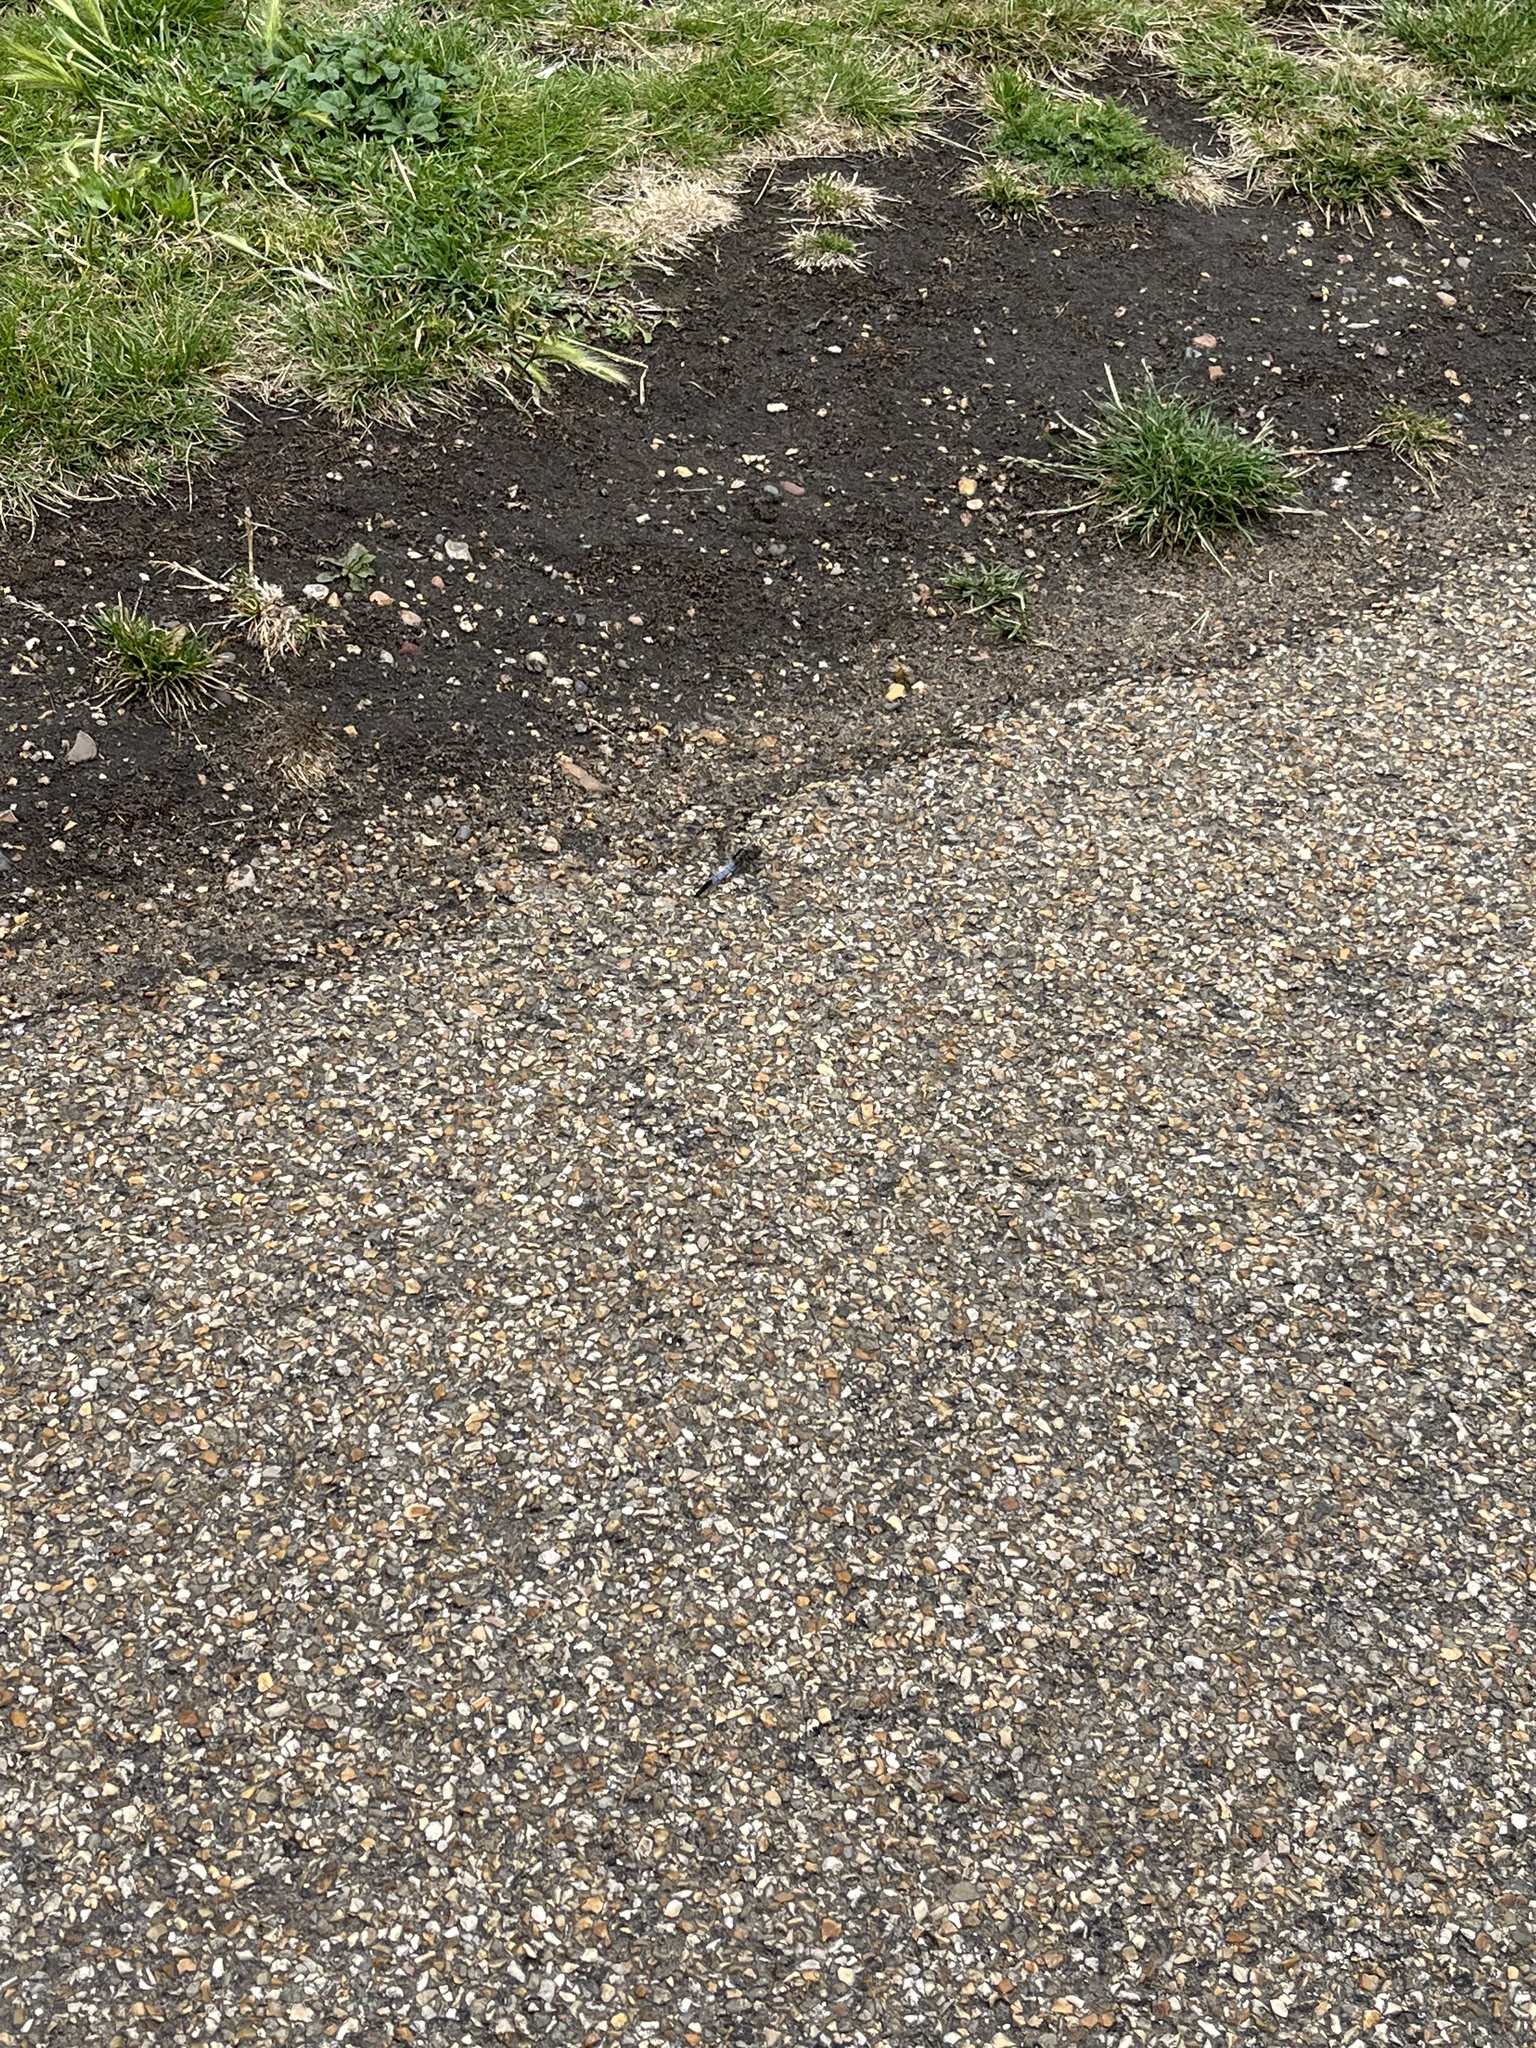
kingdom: Animalia
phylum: Arthropoda
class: Insecta
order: Odonata
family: Libellulidae
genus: Orthetrum
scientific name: Orthetrum cancellatum
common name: Black-tailed skimmer
